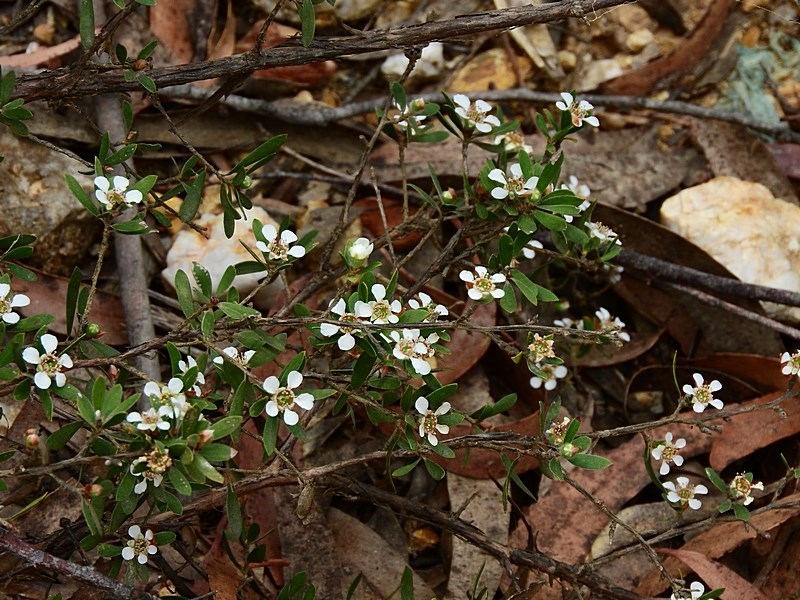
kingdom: Plantae
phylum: Tracheophyta
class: Magnoliopsida
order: Myrtales
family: Myrtaceae
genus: Leptospermum
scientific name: Leptospermum trinervium
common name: Flaky-barked tea-tree
